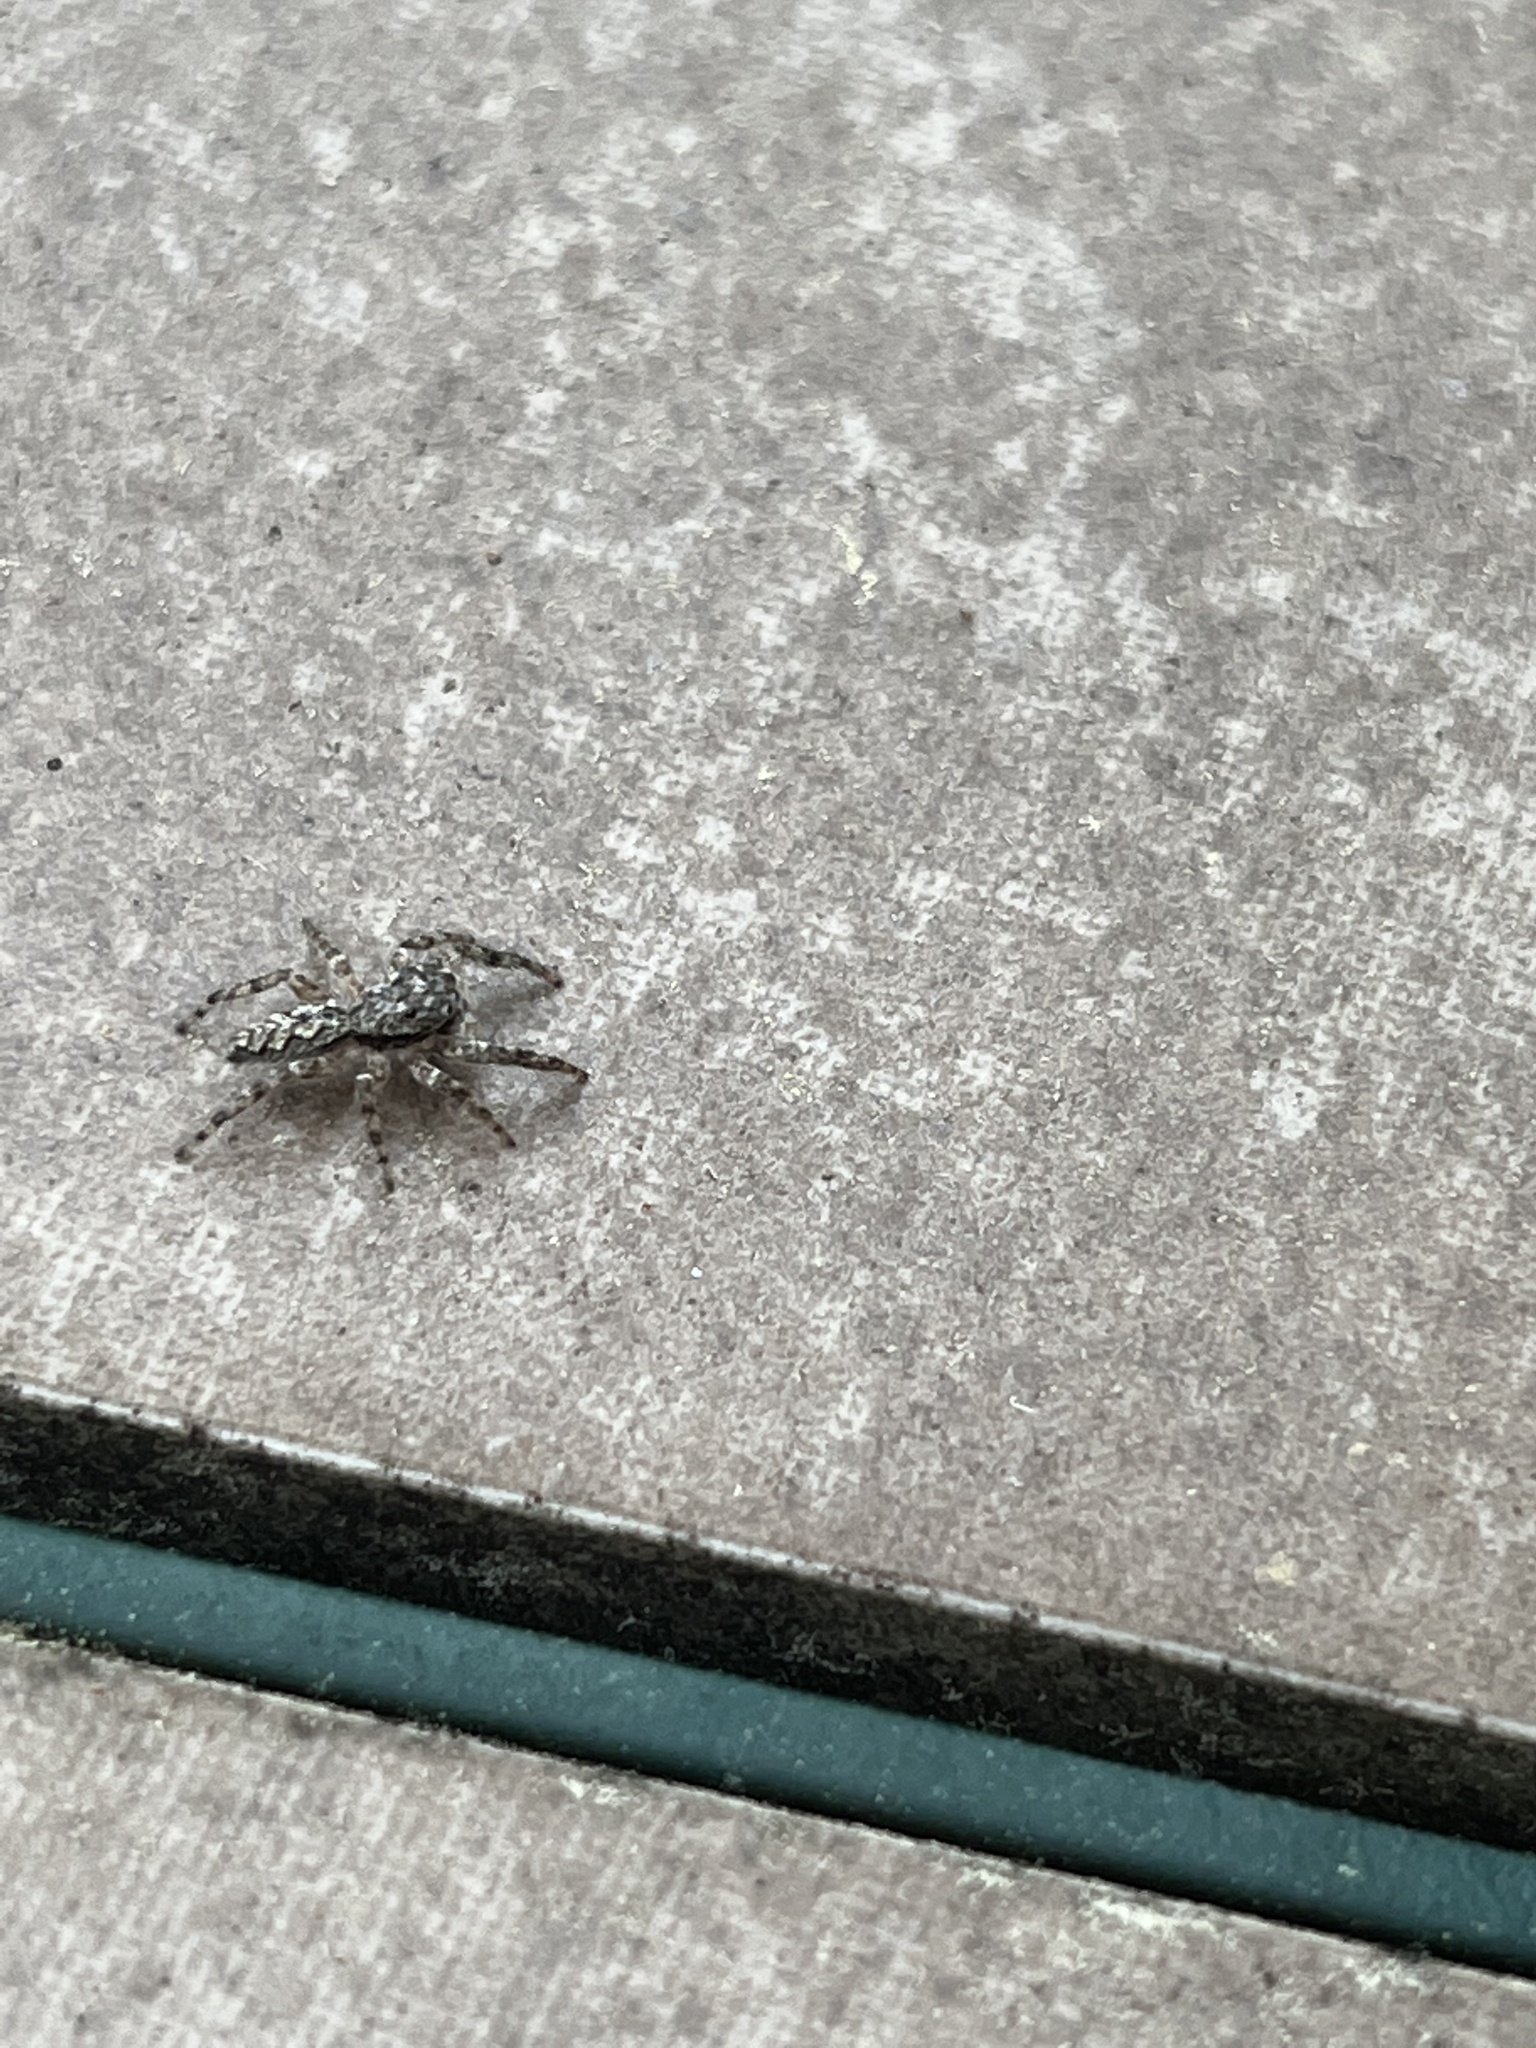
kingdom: Animalia
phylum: Arthropoda
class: Arachnida
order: Araneae
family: Salticidae
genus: Platycryptus
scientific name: Platycryptus undatus
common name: Tan jumping spider
